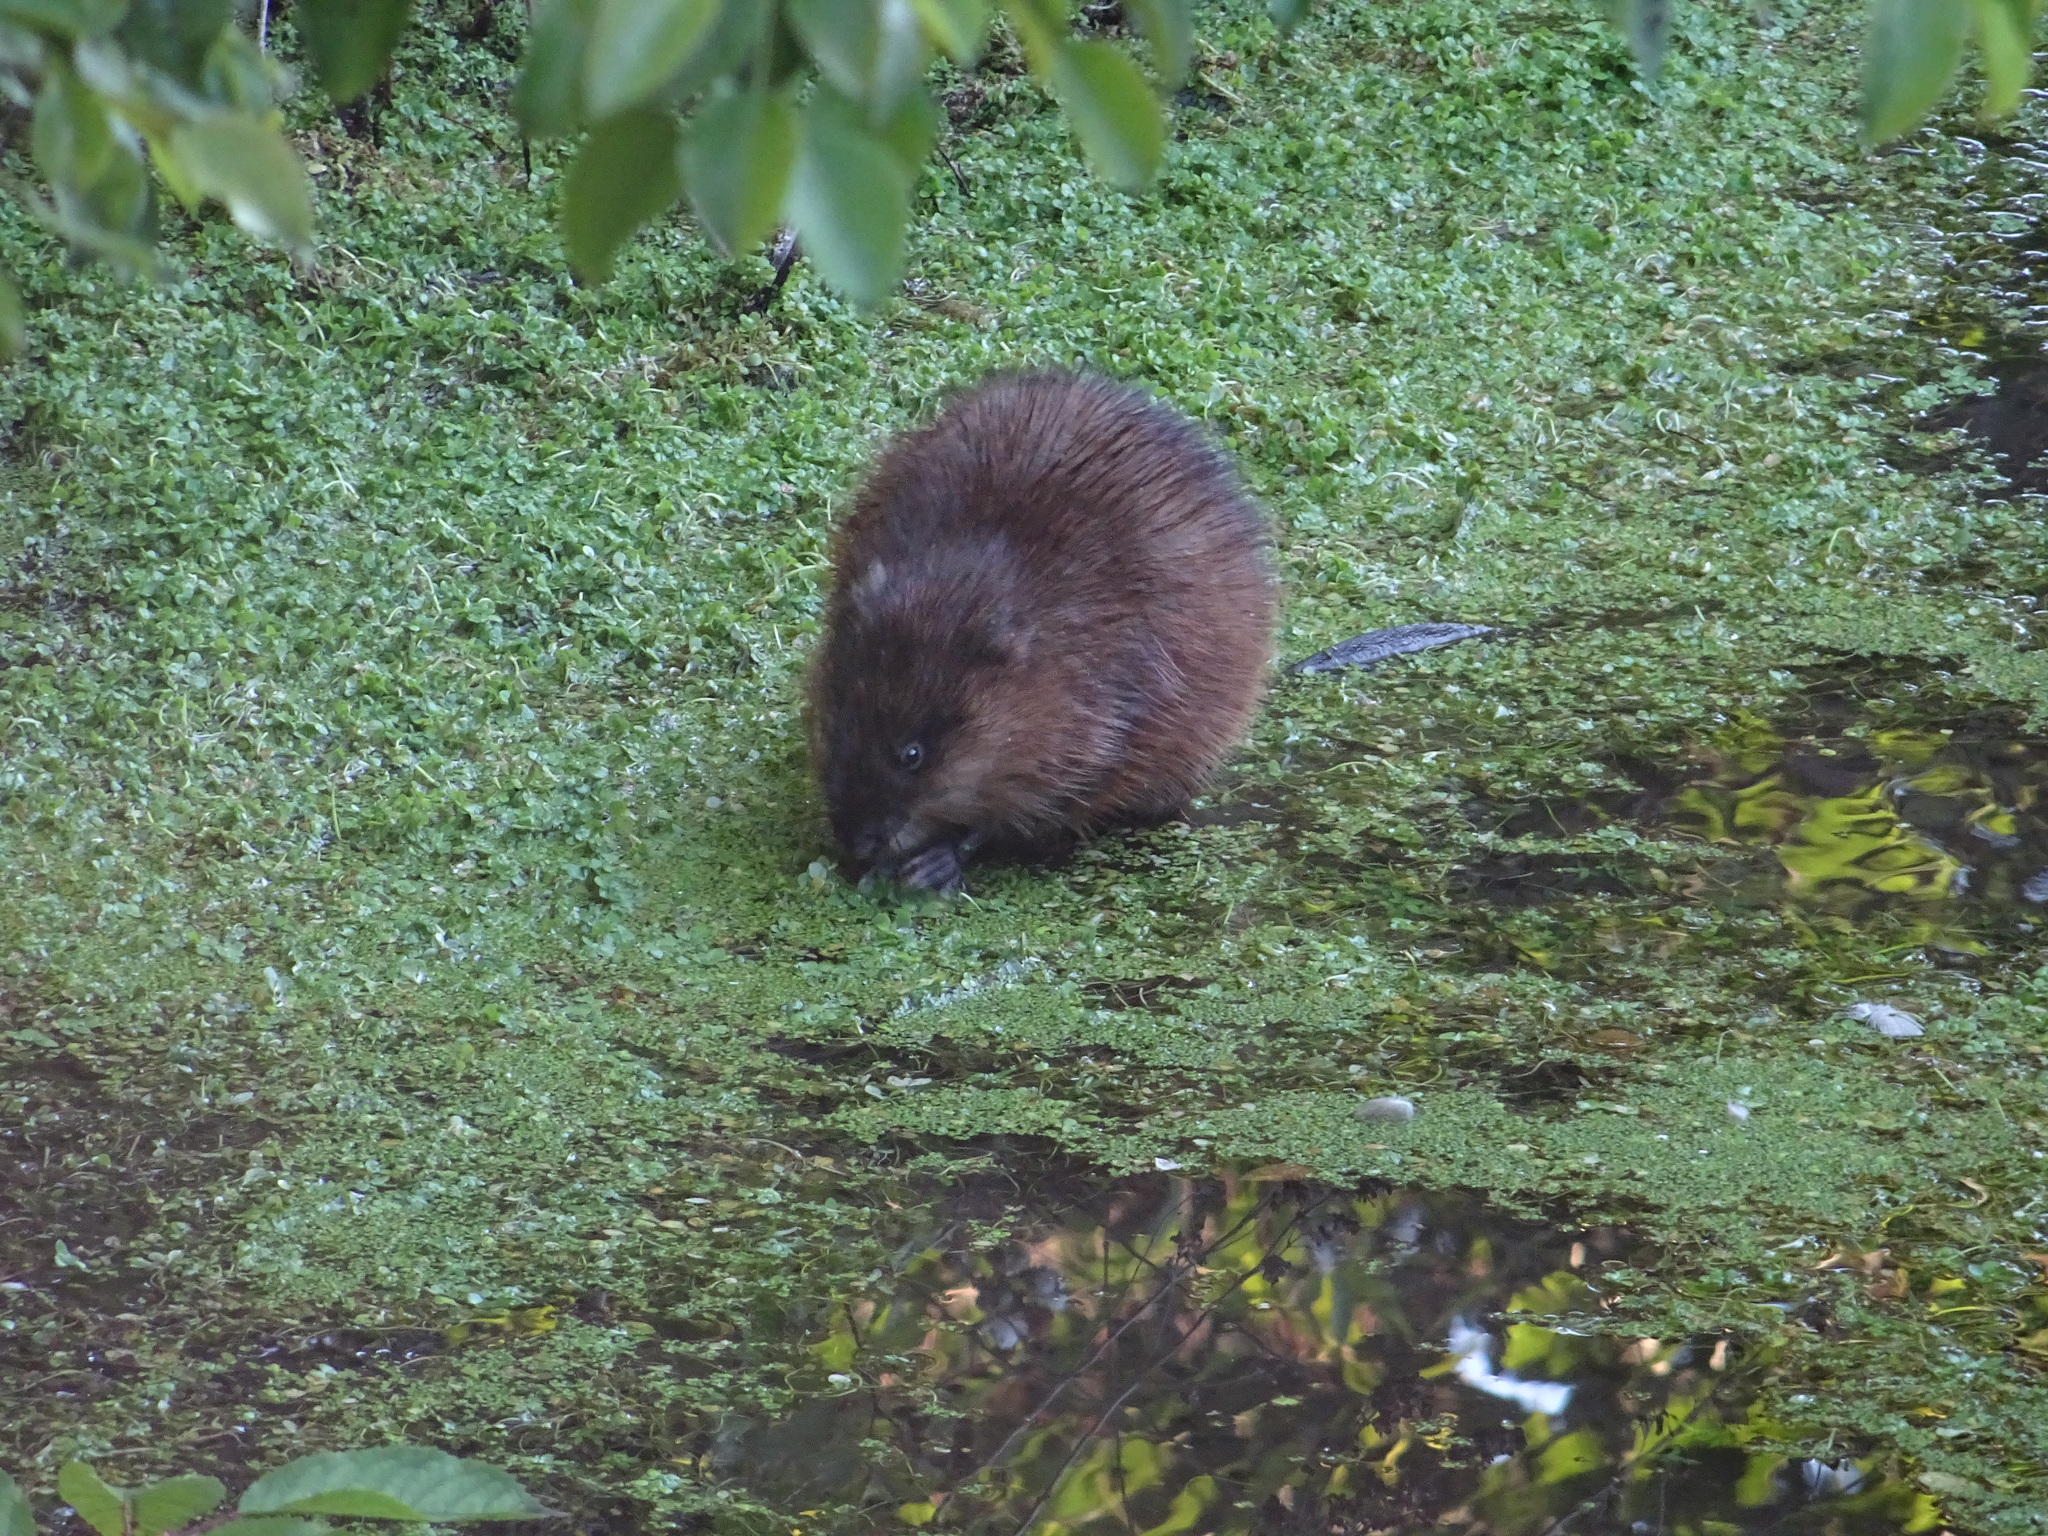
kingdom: Animalia
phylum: Chordata
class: Mammalia
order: Rodentia
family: Myocastoridae
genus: Myocastor
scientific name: Myocastor coypus
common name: Coypu
